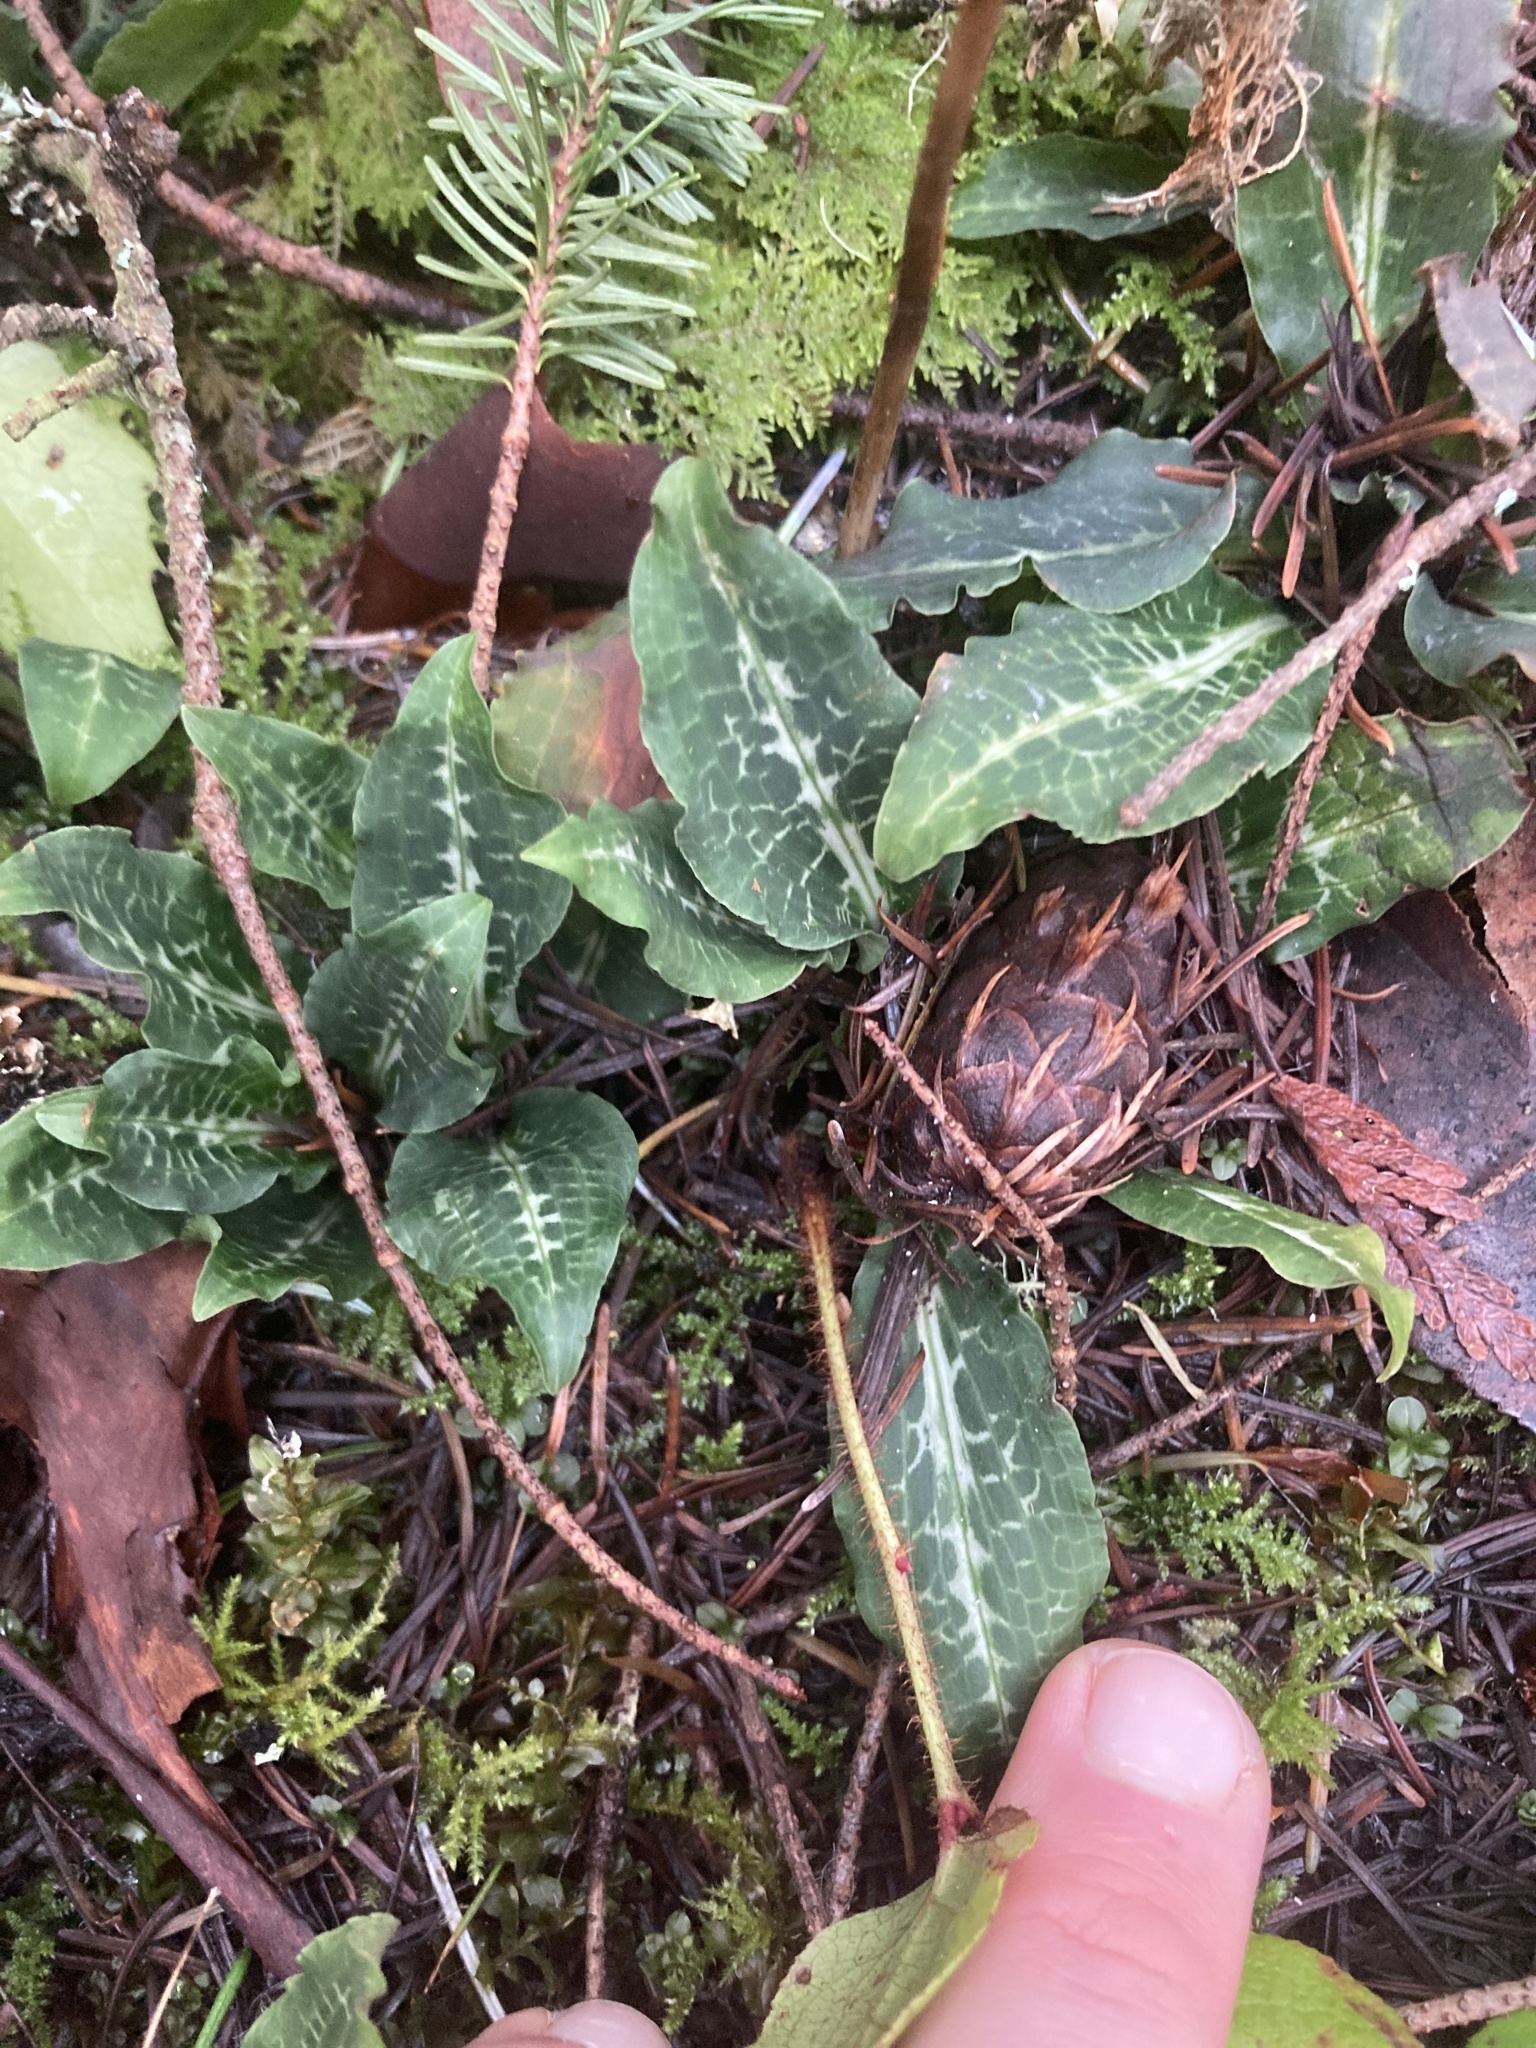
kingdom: Plantae
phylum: Tracheophyta
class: Liliopsida
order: Asparagales
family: Orchidaceae
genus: Goodyera
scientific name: Goodyera oblongifolia
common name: Giant rattlesnake-plantain
